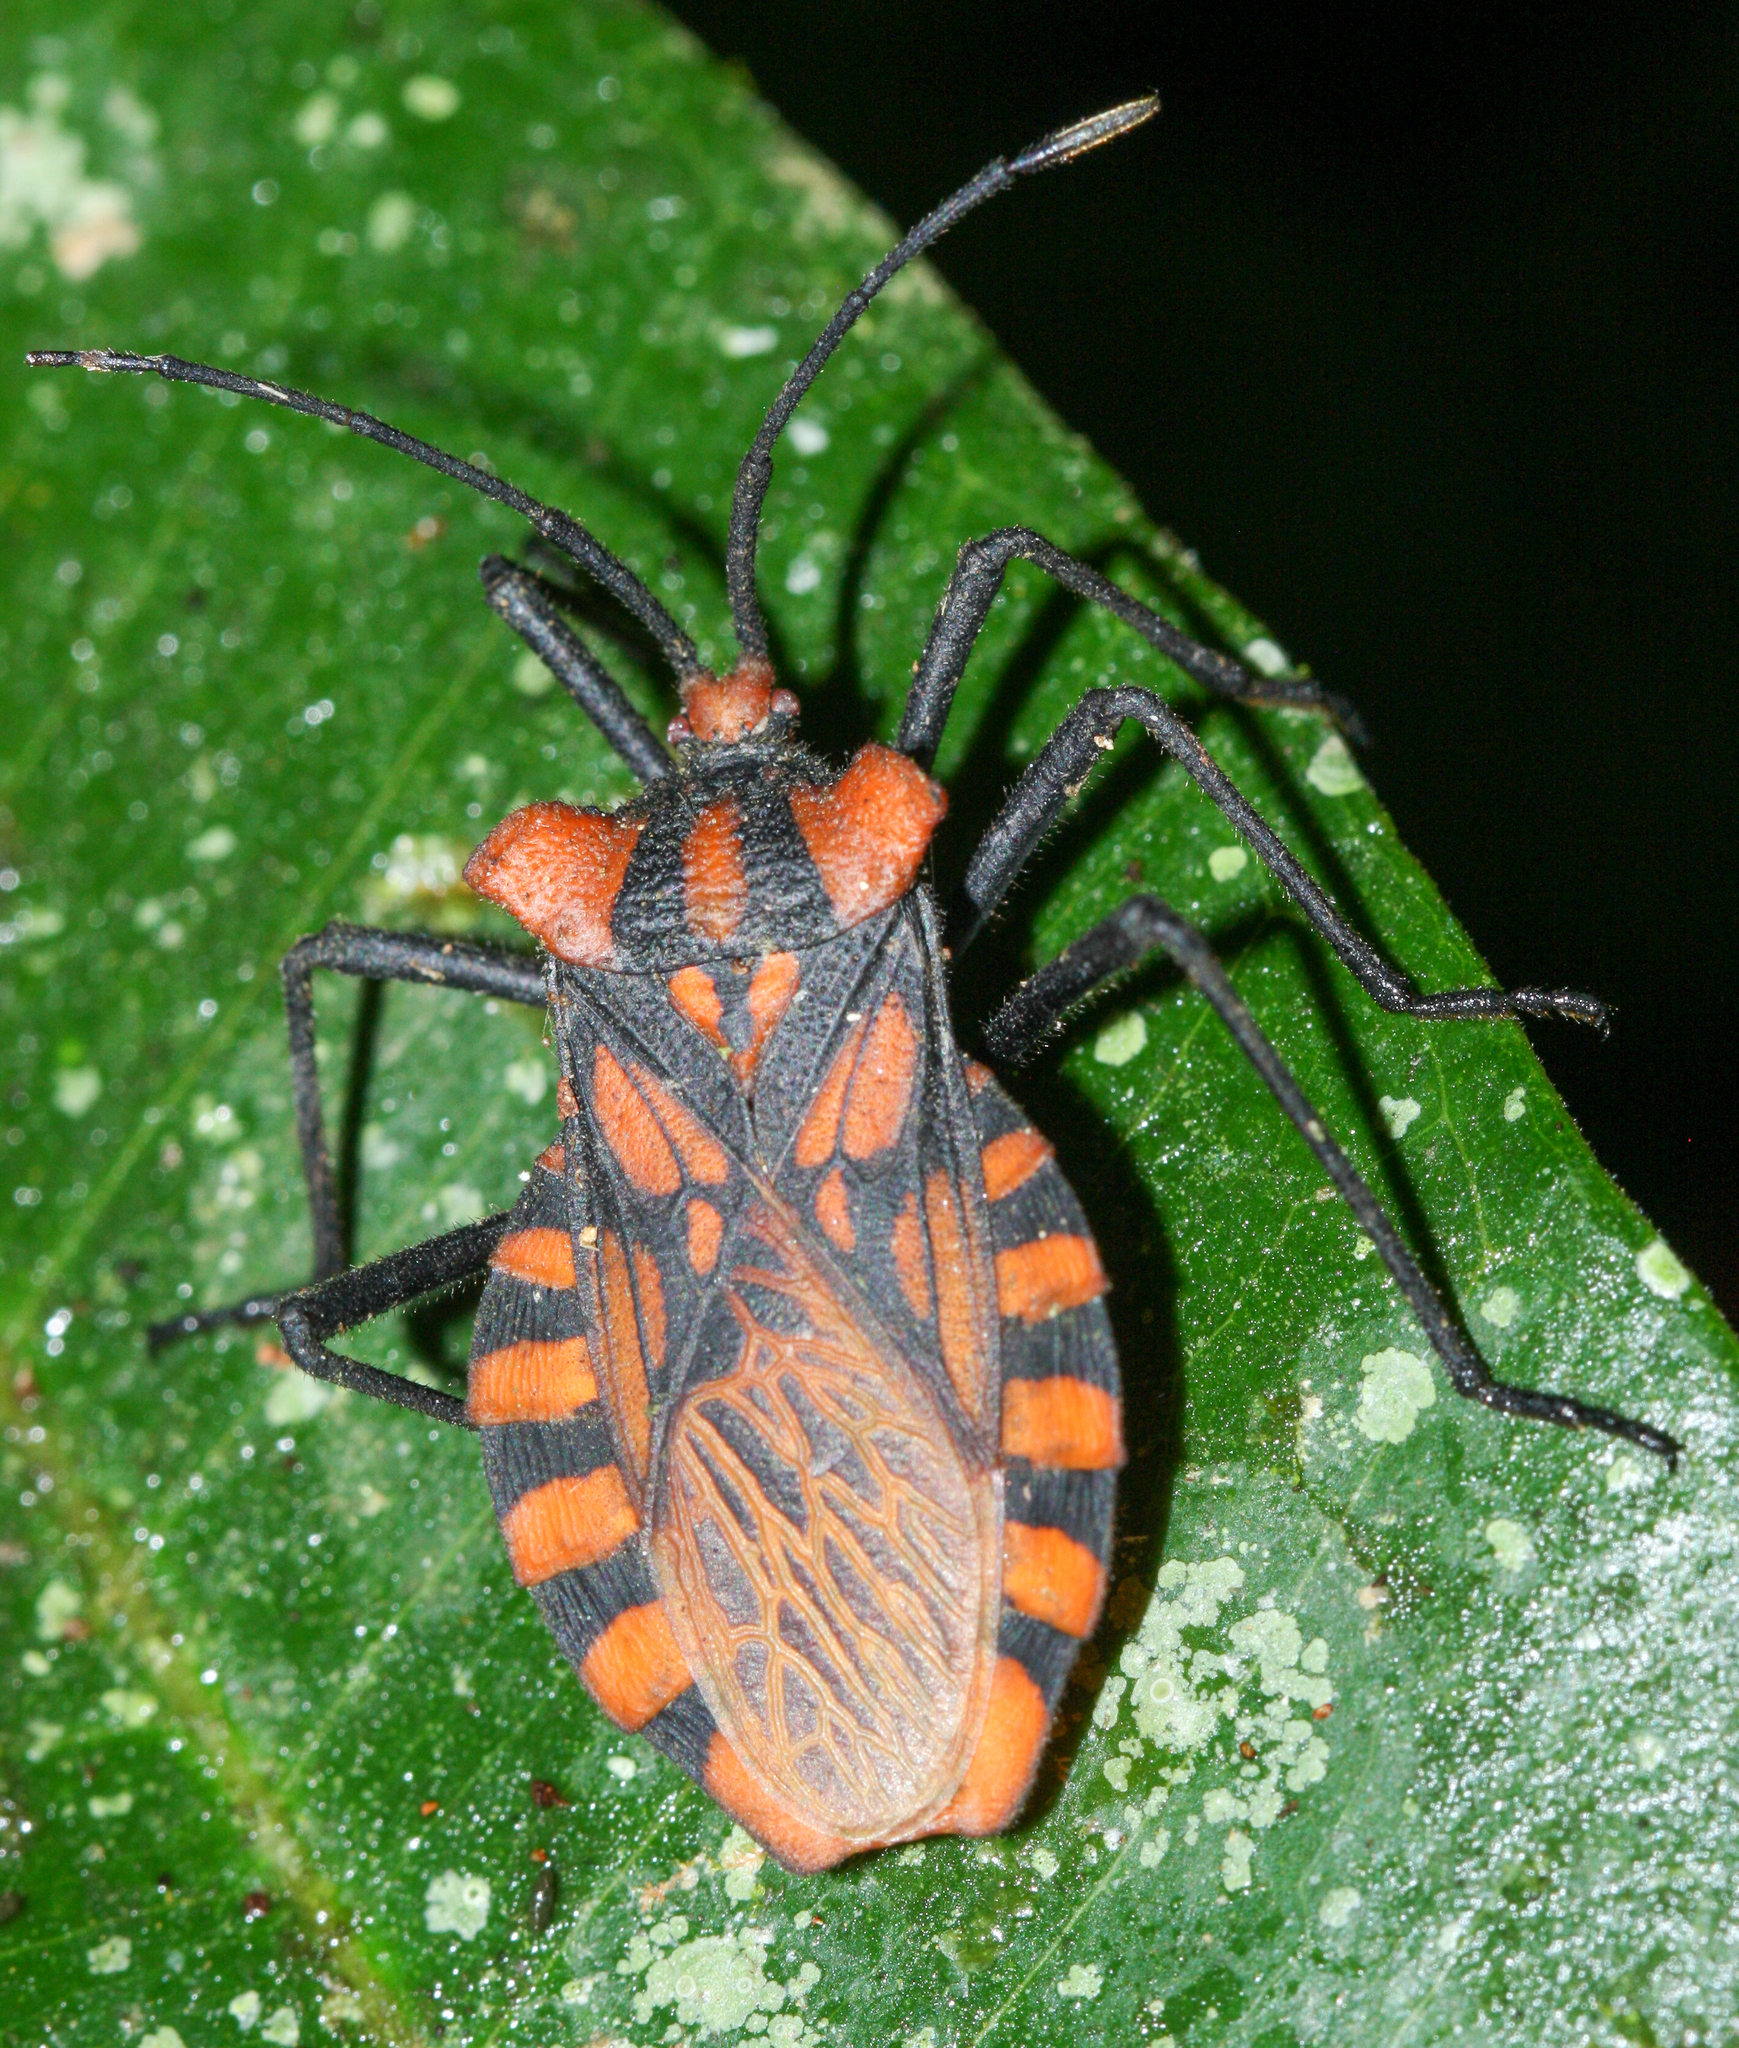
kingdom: Animalia
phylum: Arthropoda
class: Insecta
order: Hemiptera
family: Coreidae
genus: Spartocera
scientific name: Spartocera pantomima
